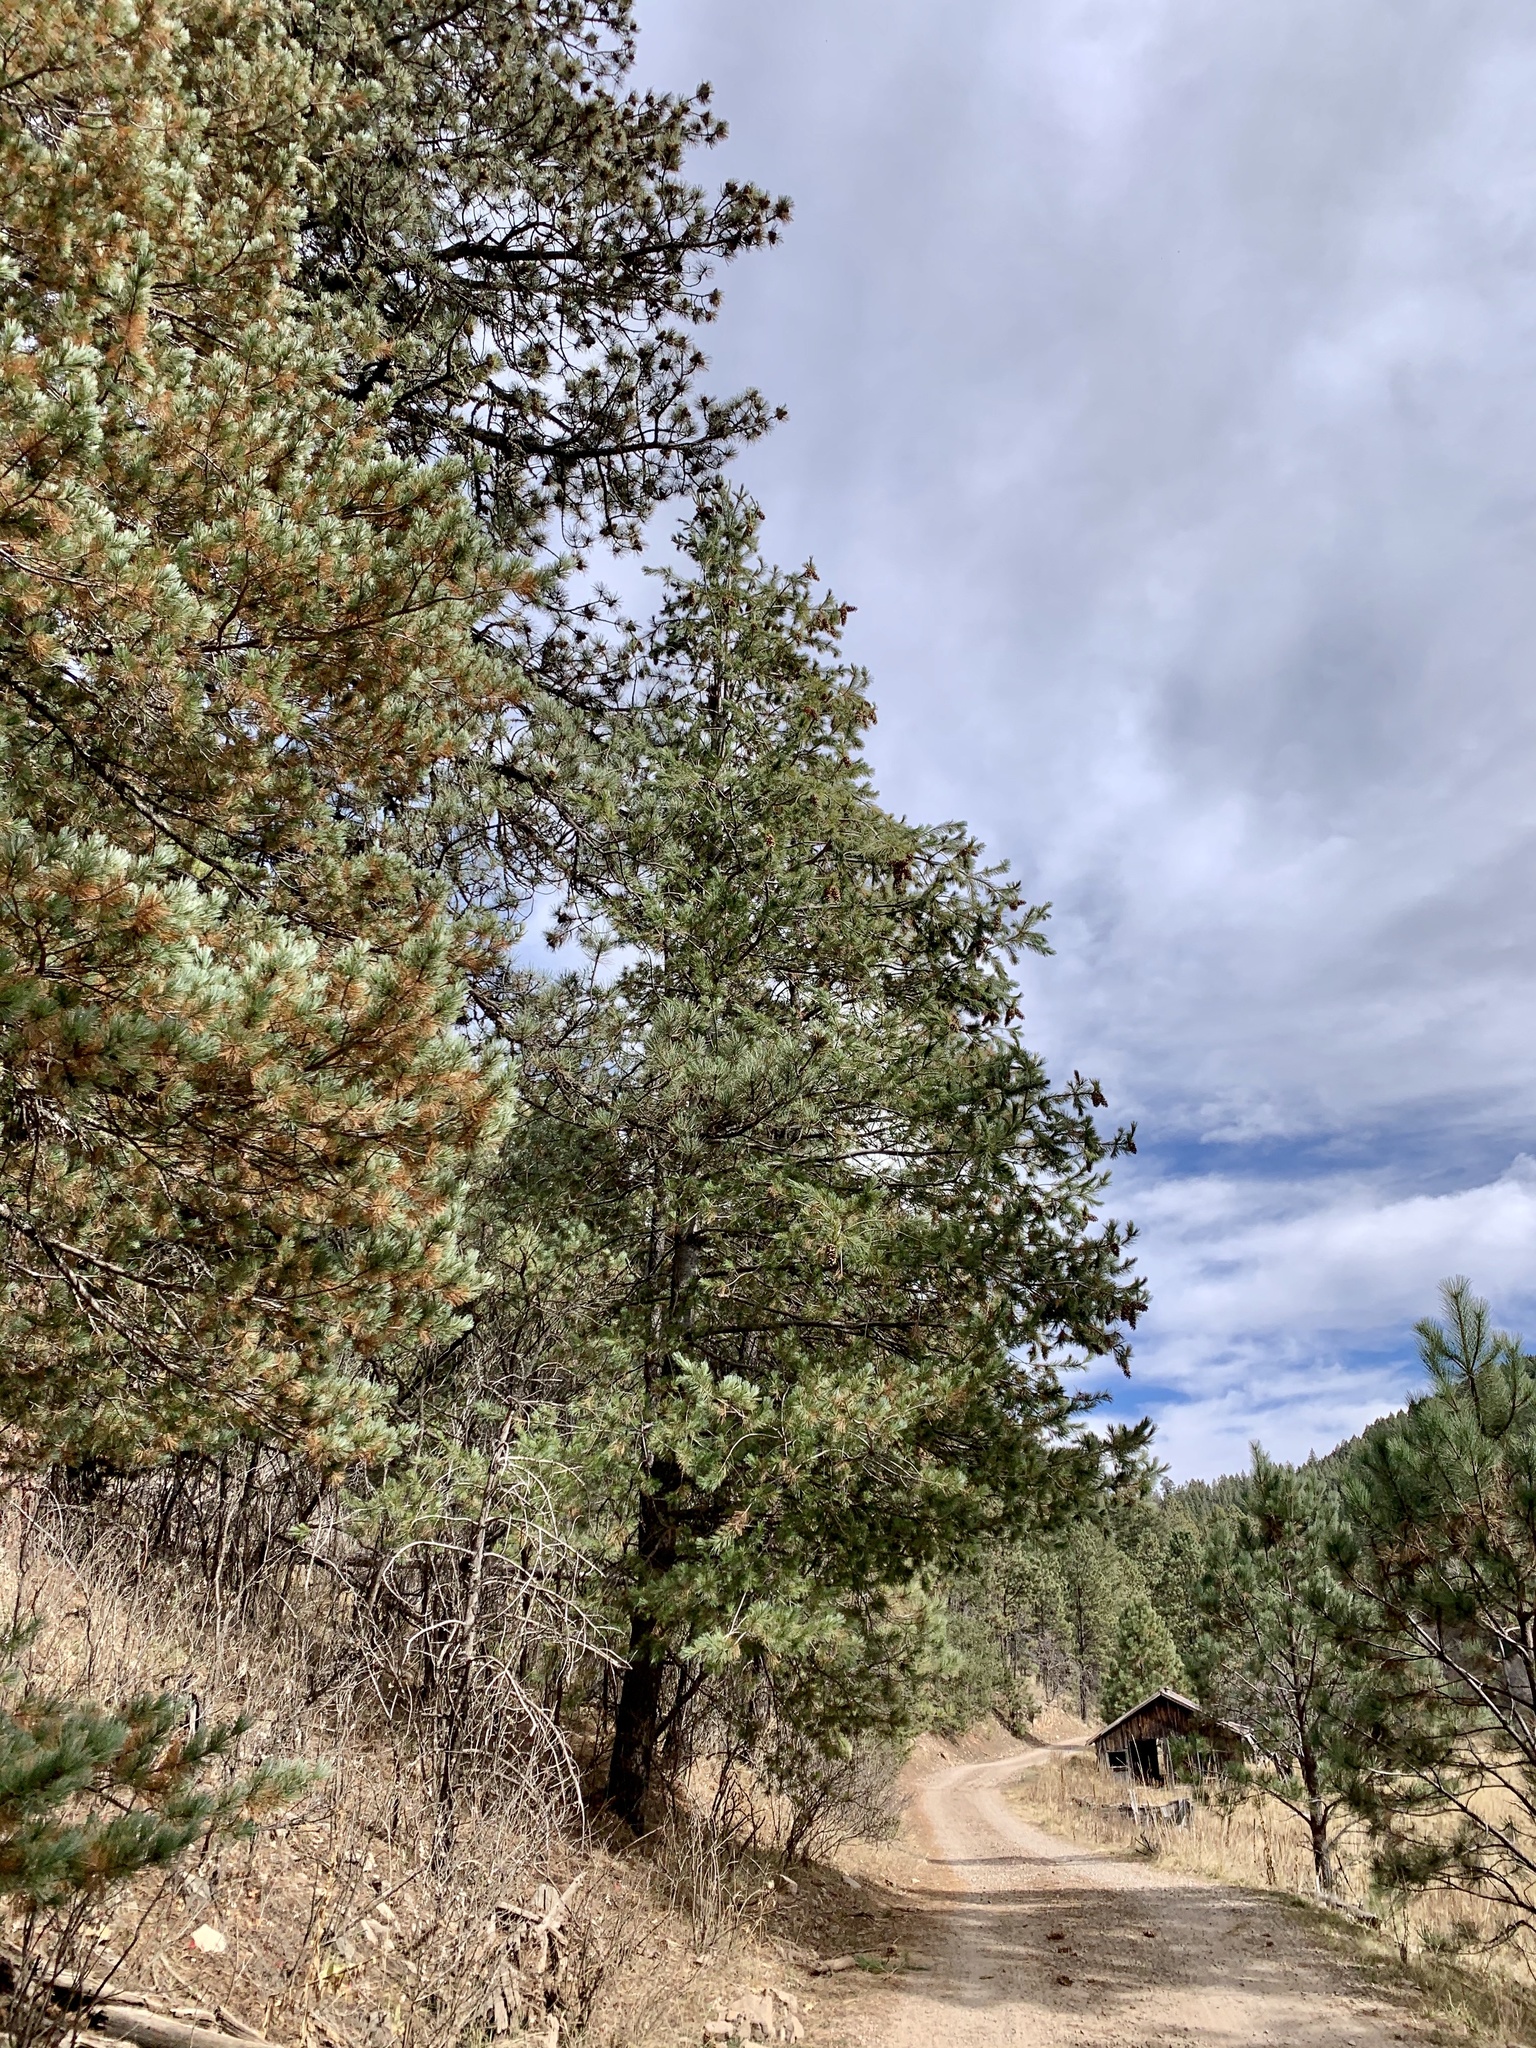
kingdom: Plantae
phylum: Tracheophyta
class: Pinopsida
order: Pinales
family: Pinaceae
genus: Pinus
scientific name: Pinus strobiformis
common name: Southwestern white pine
